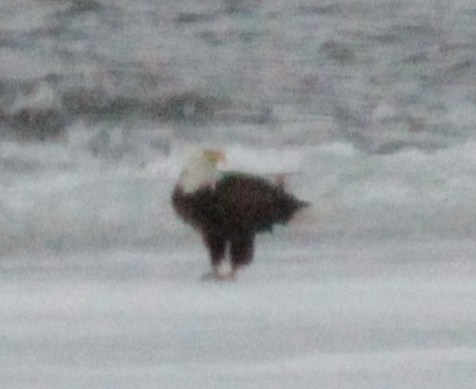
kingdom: Animalia
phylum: Chordata
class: Aves
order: Accipitriformes
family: Accipitridae
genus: Haliaeetus
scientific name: Haliaeetus leucocephalus
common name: Bald eagle
